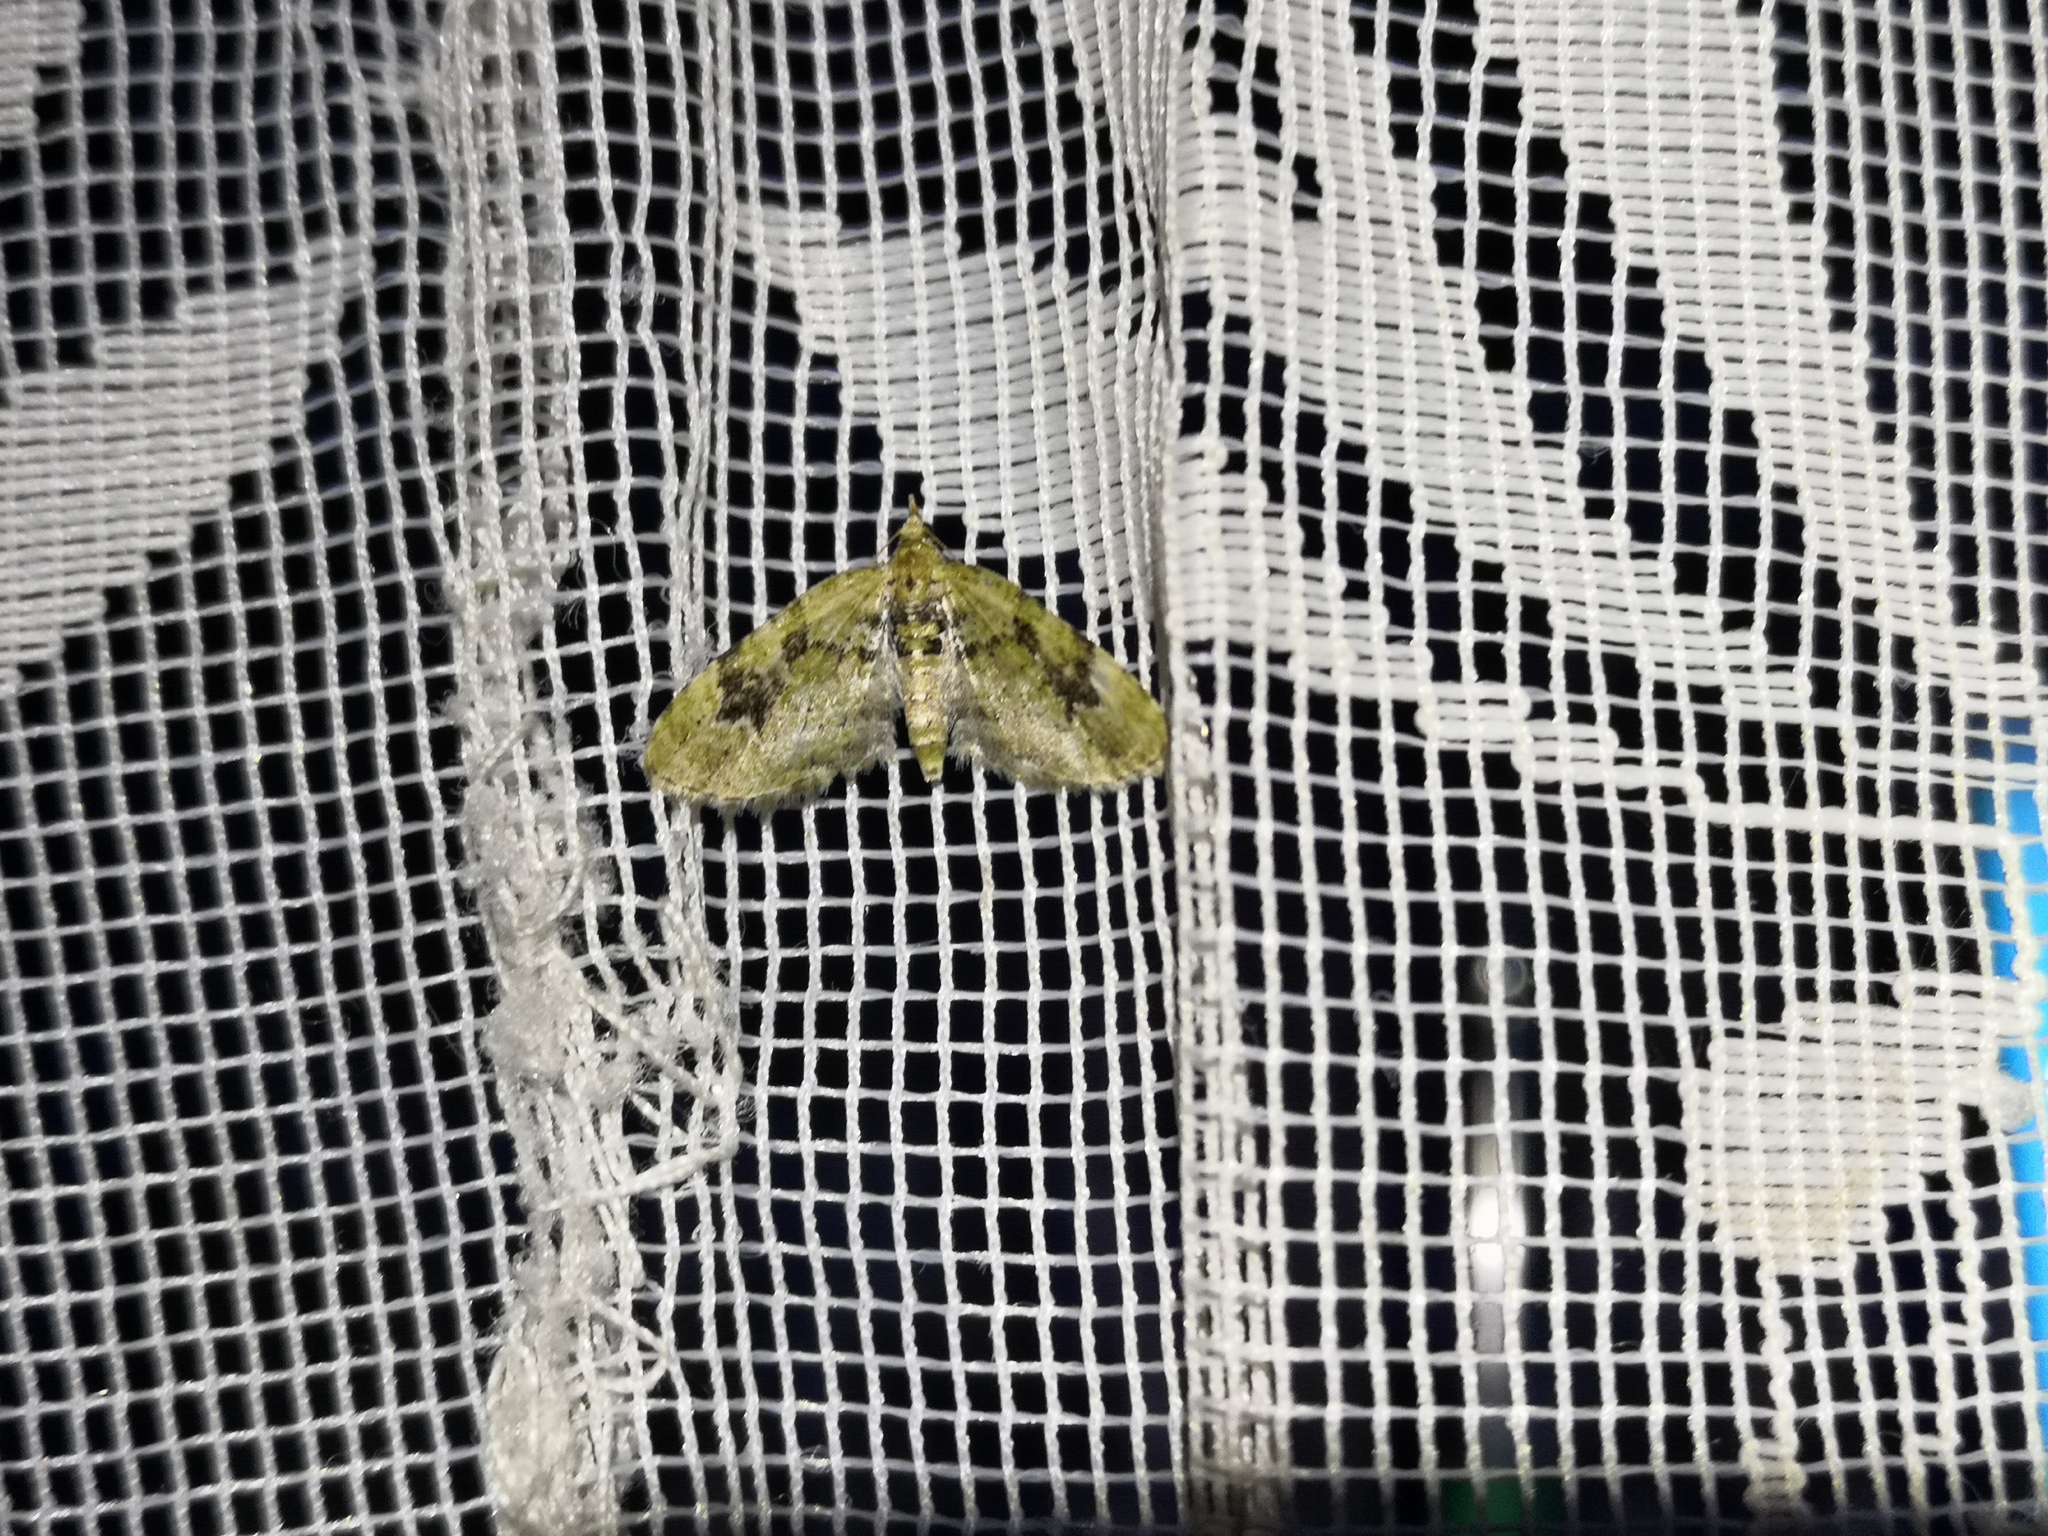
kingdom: Animalia
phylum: Arthropoda
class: Insecta
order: Lepidoptera
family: Geometridae
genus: Chloroclystis
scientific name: Chloroclystis v-ata
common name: V-pug
